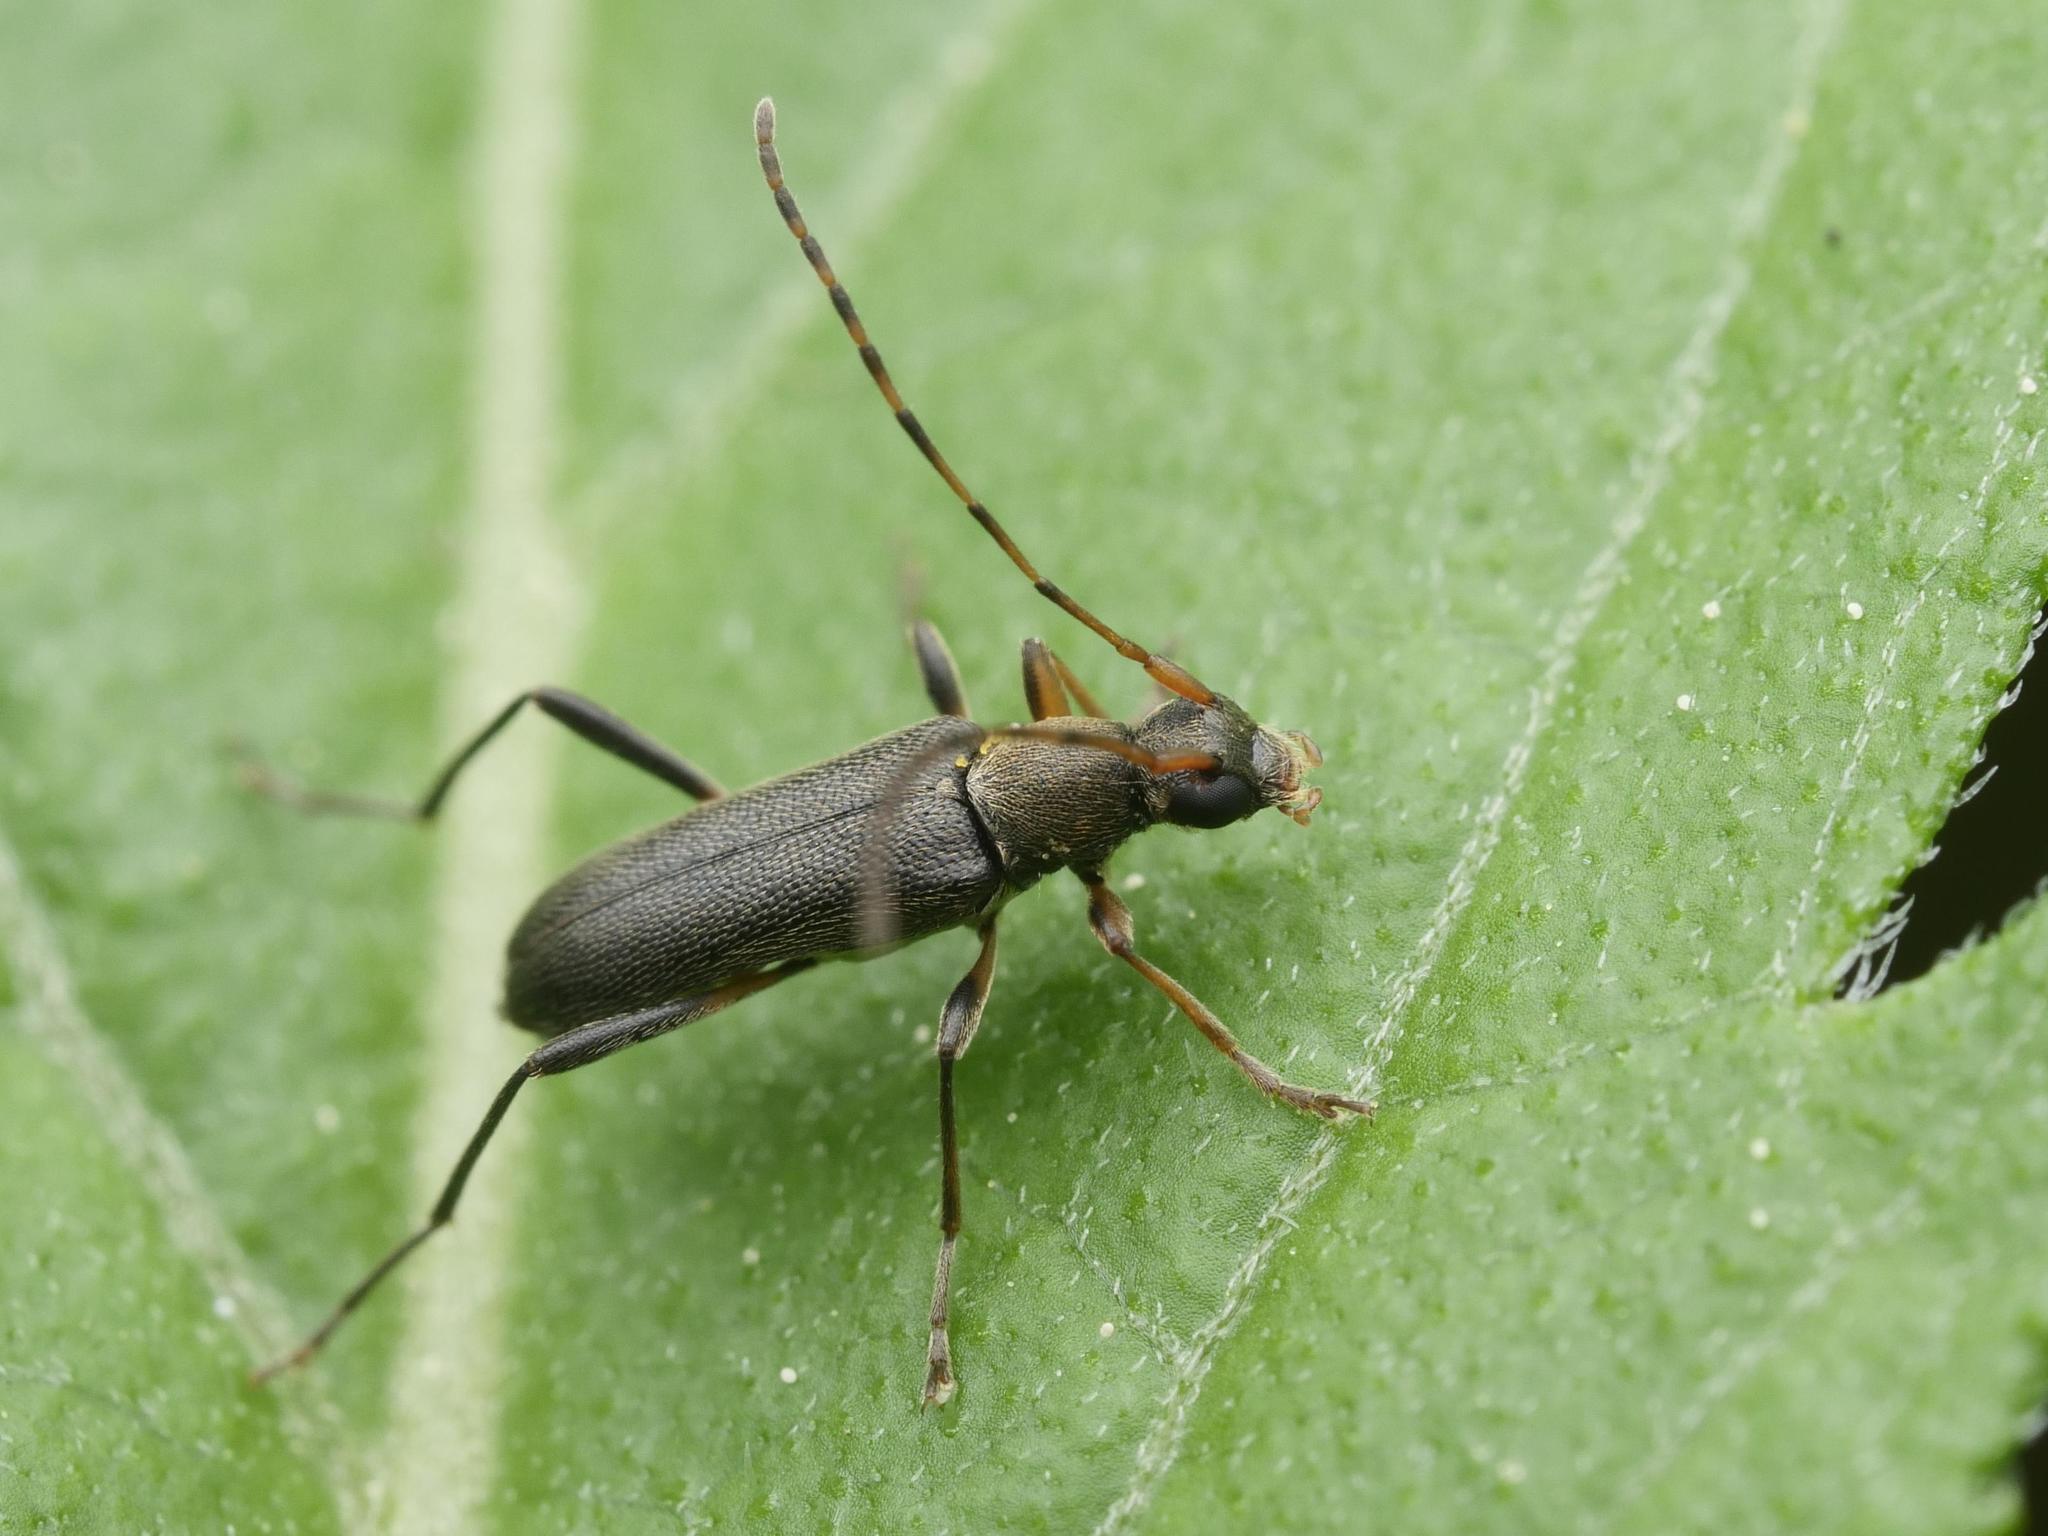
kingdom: Animalia
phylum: Arthropoda
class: Insecta
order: Coleoptera
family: Cerambycidae
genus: Grammoptera
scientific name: Grammoptera ruficornis
